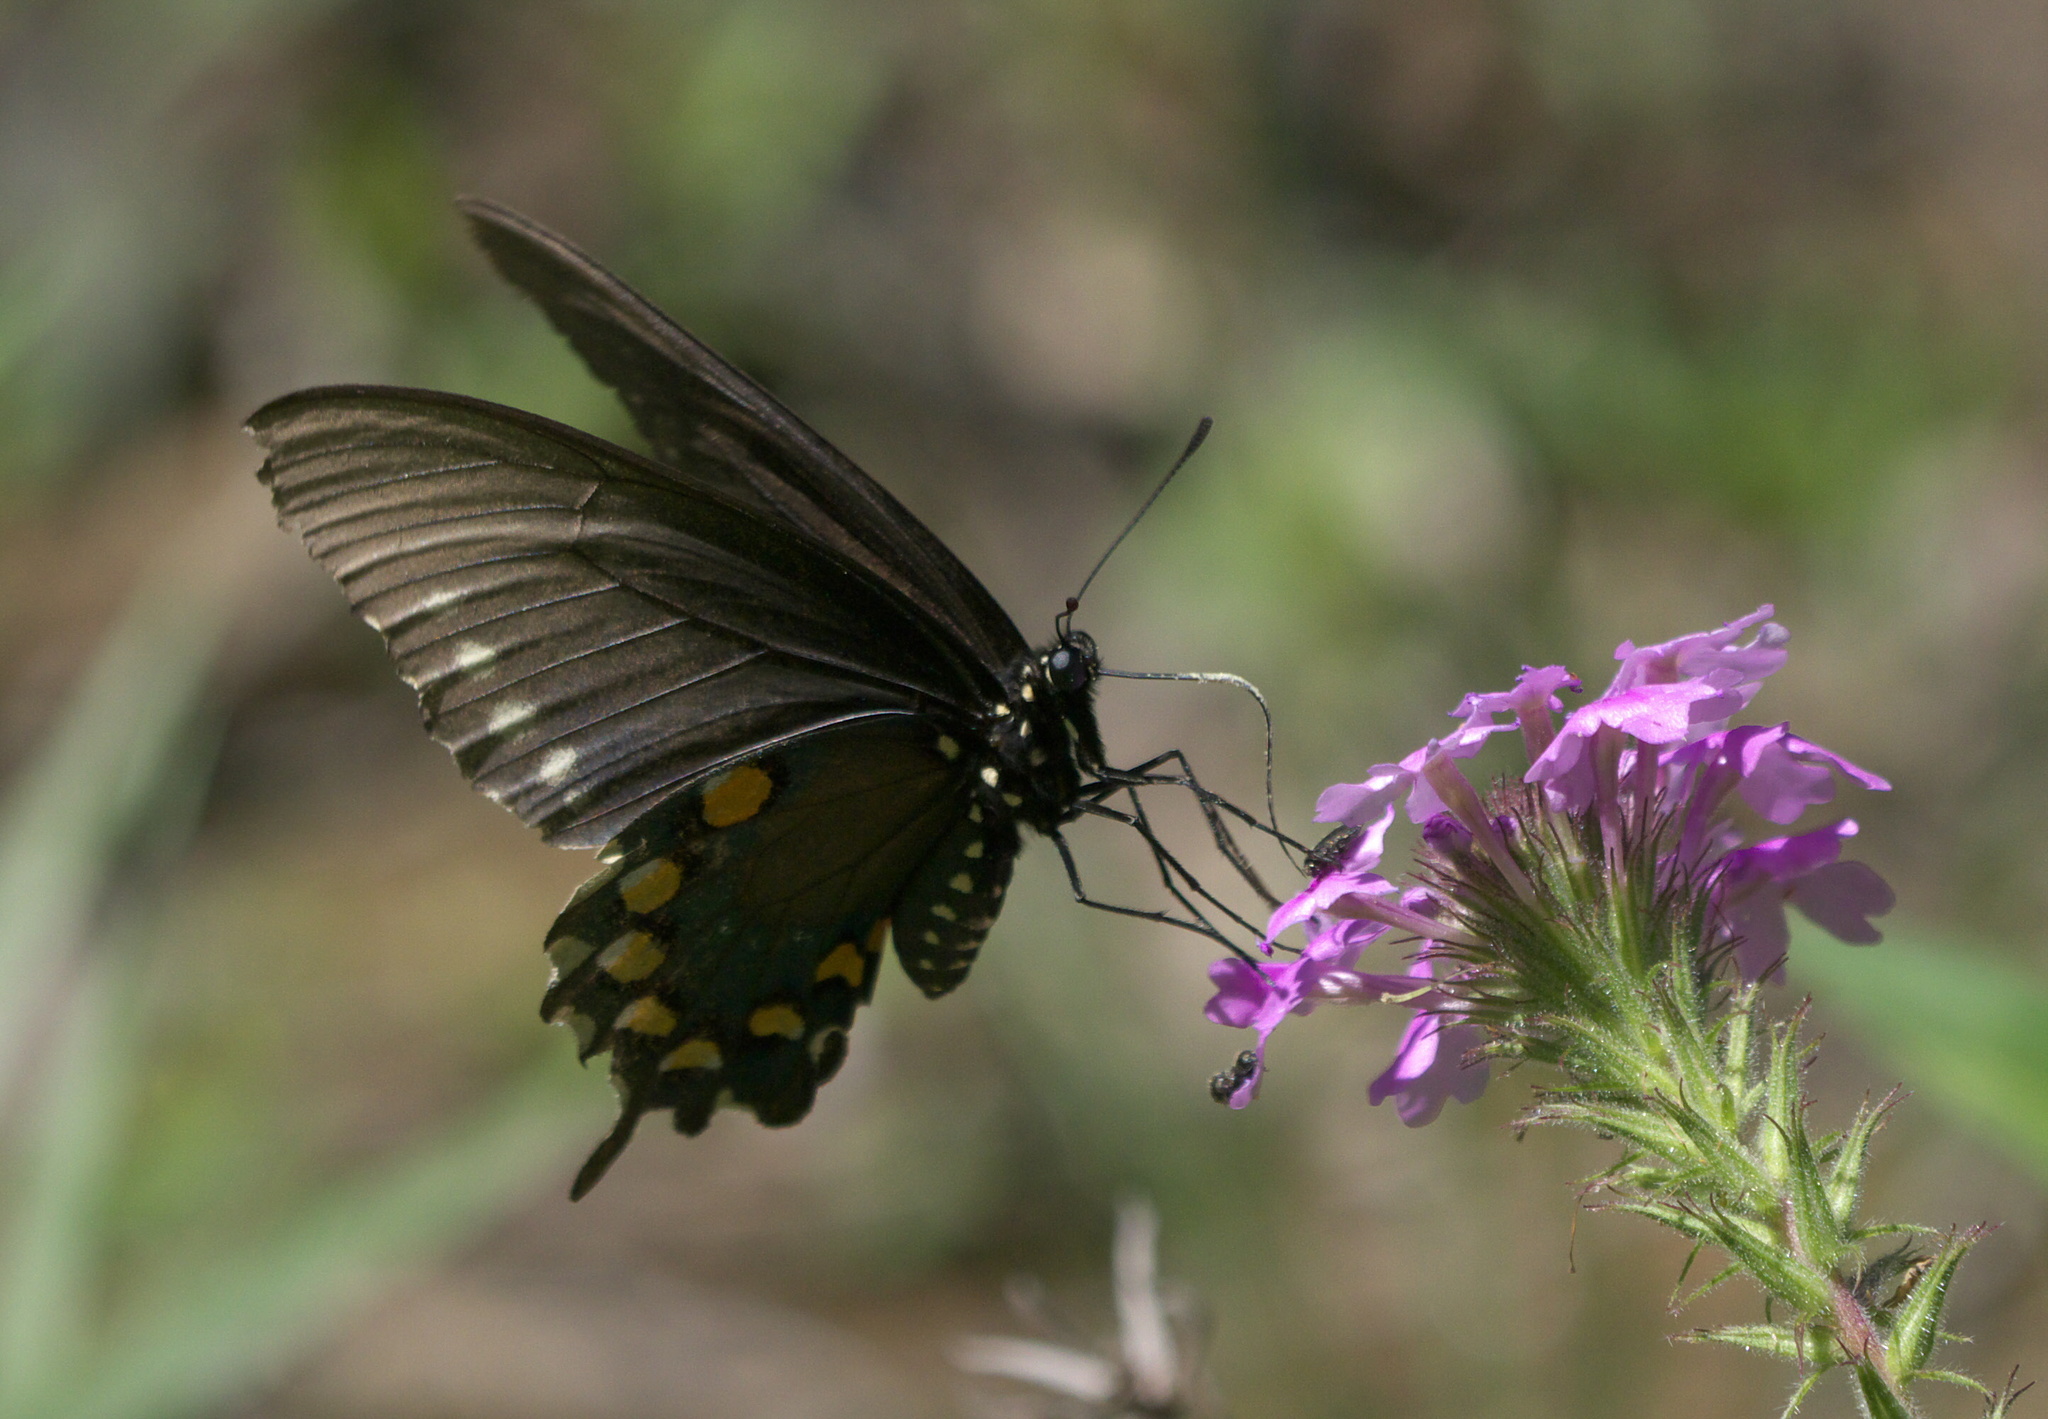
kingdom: Animalia
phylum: Arthropoda
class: Insecta
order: Lepidoptera
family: Papilionidae
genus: Battus
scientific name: Battus philenor
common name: Pipevine swallowtail
